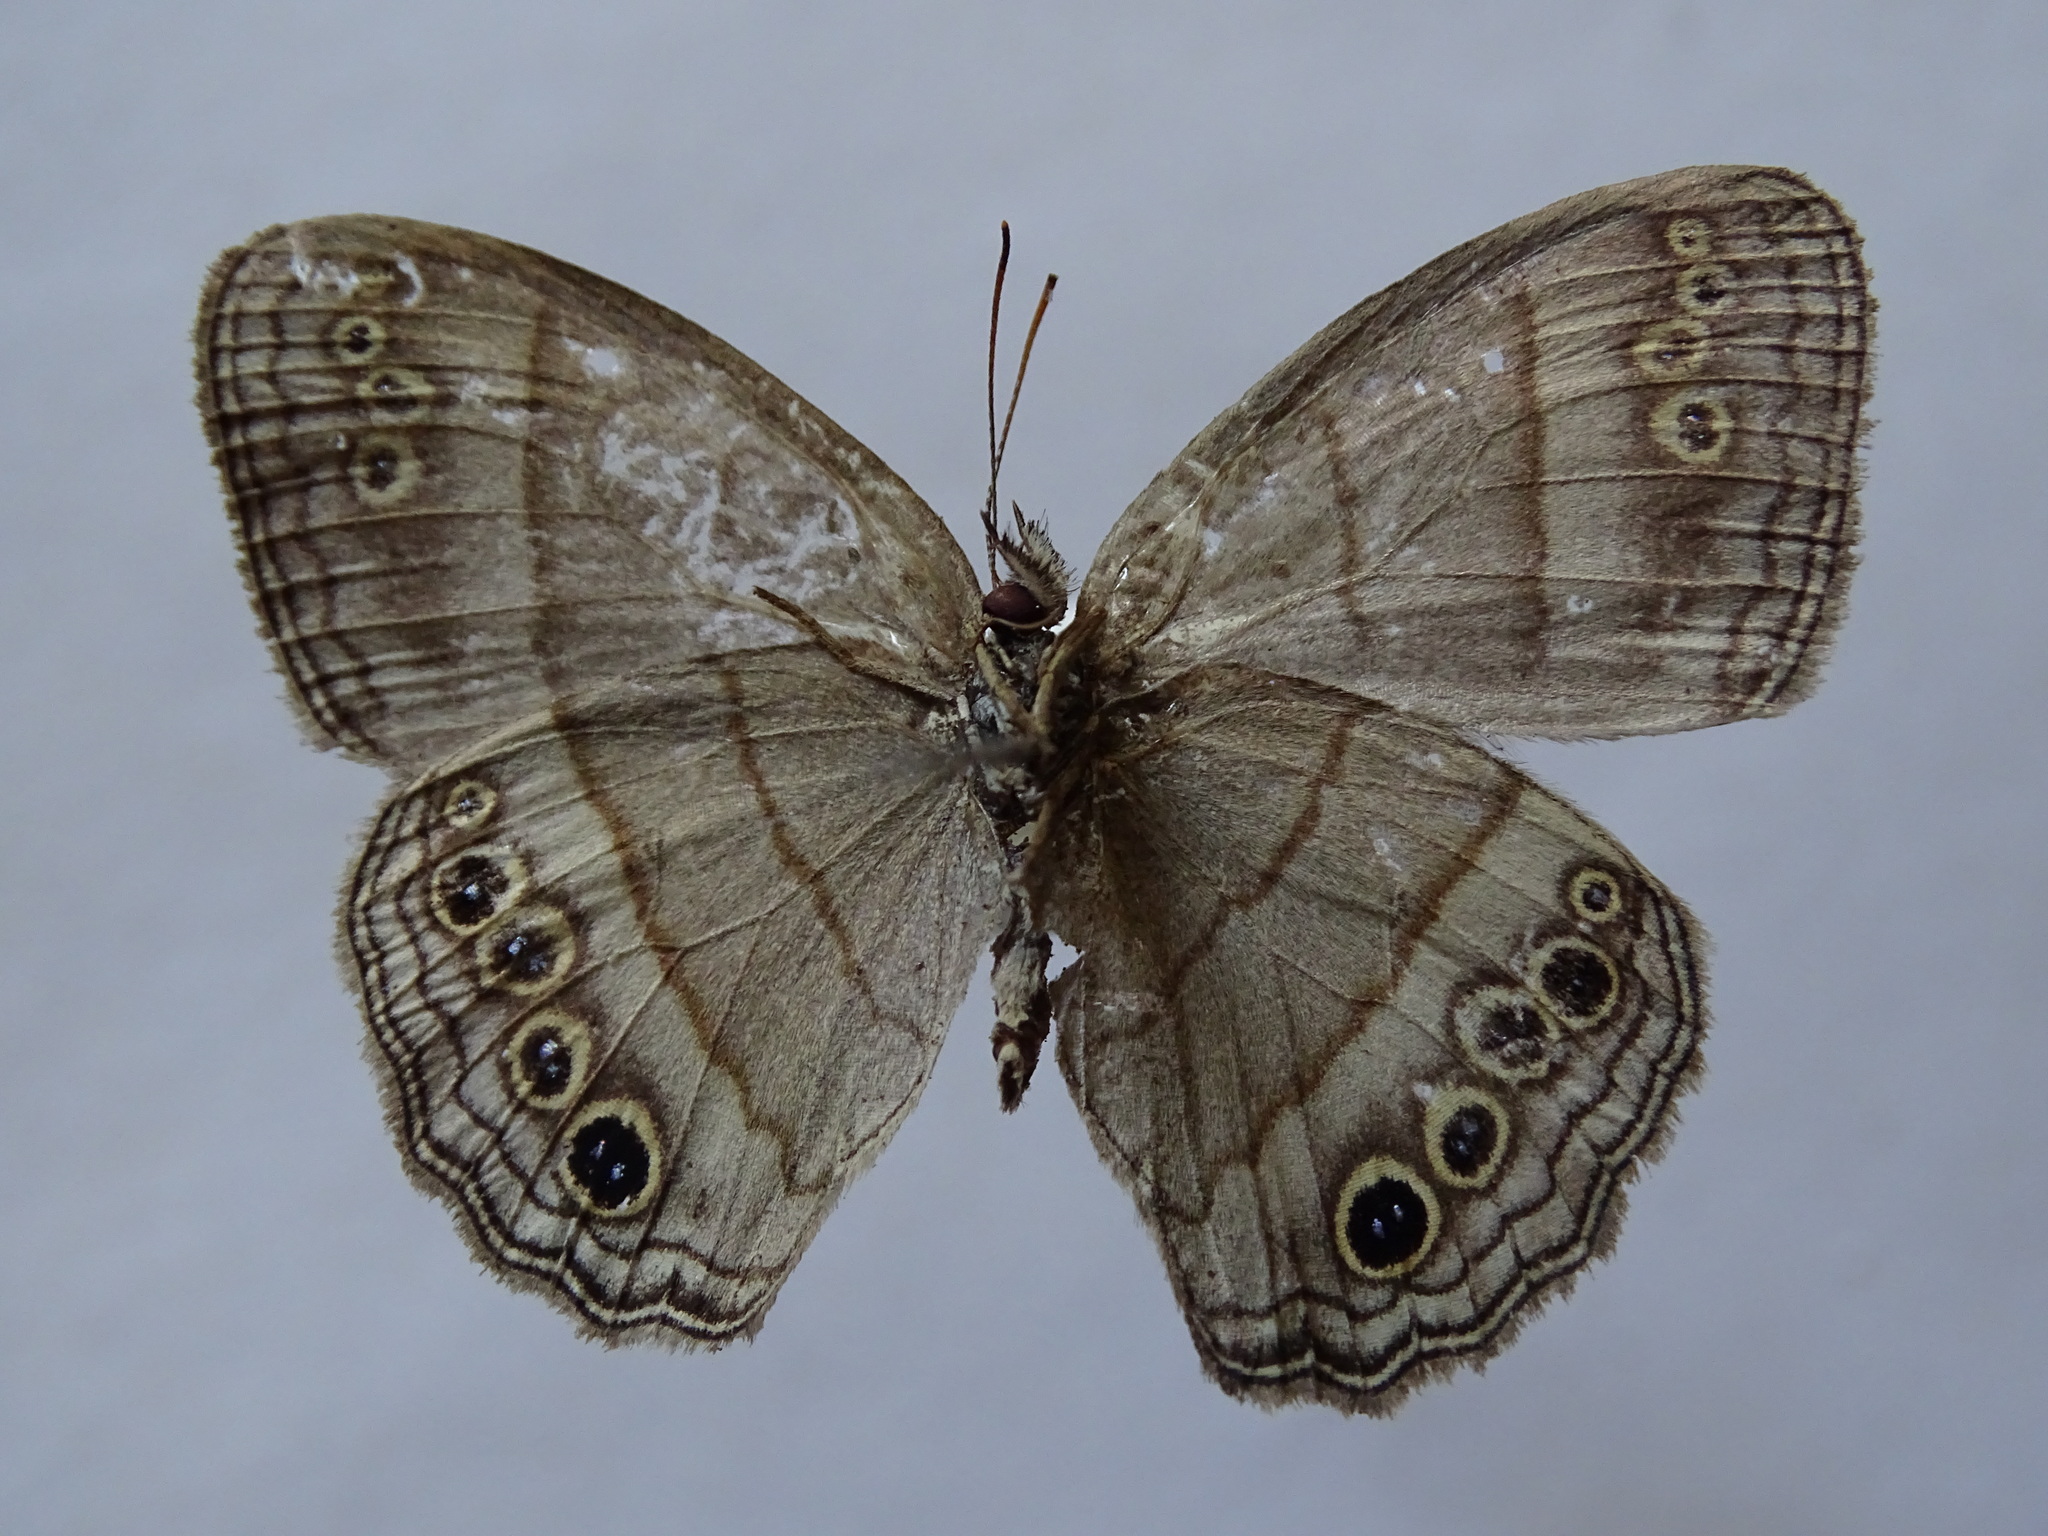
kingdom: Animalia
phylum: Arthropoda
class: Insecta
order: Lepidoptera
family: Nymphalidae
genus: Vareuptychia
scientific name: Vareuptychia similis
